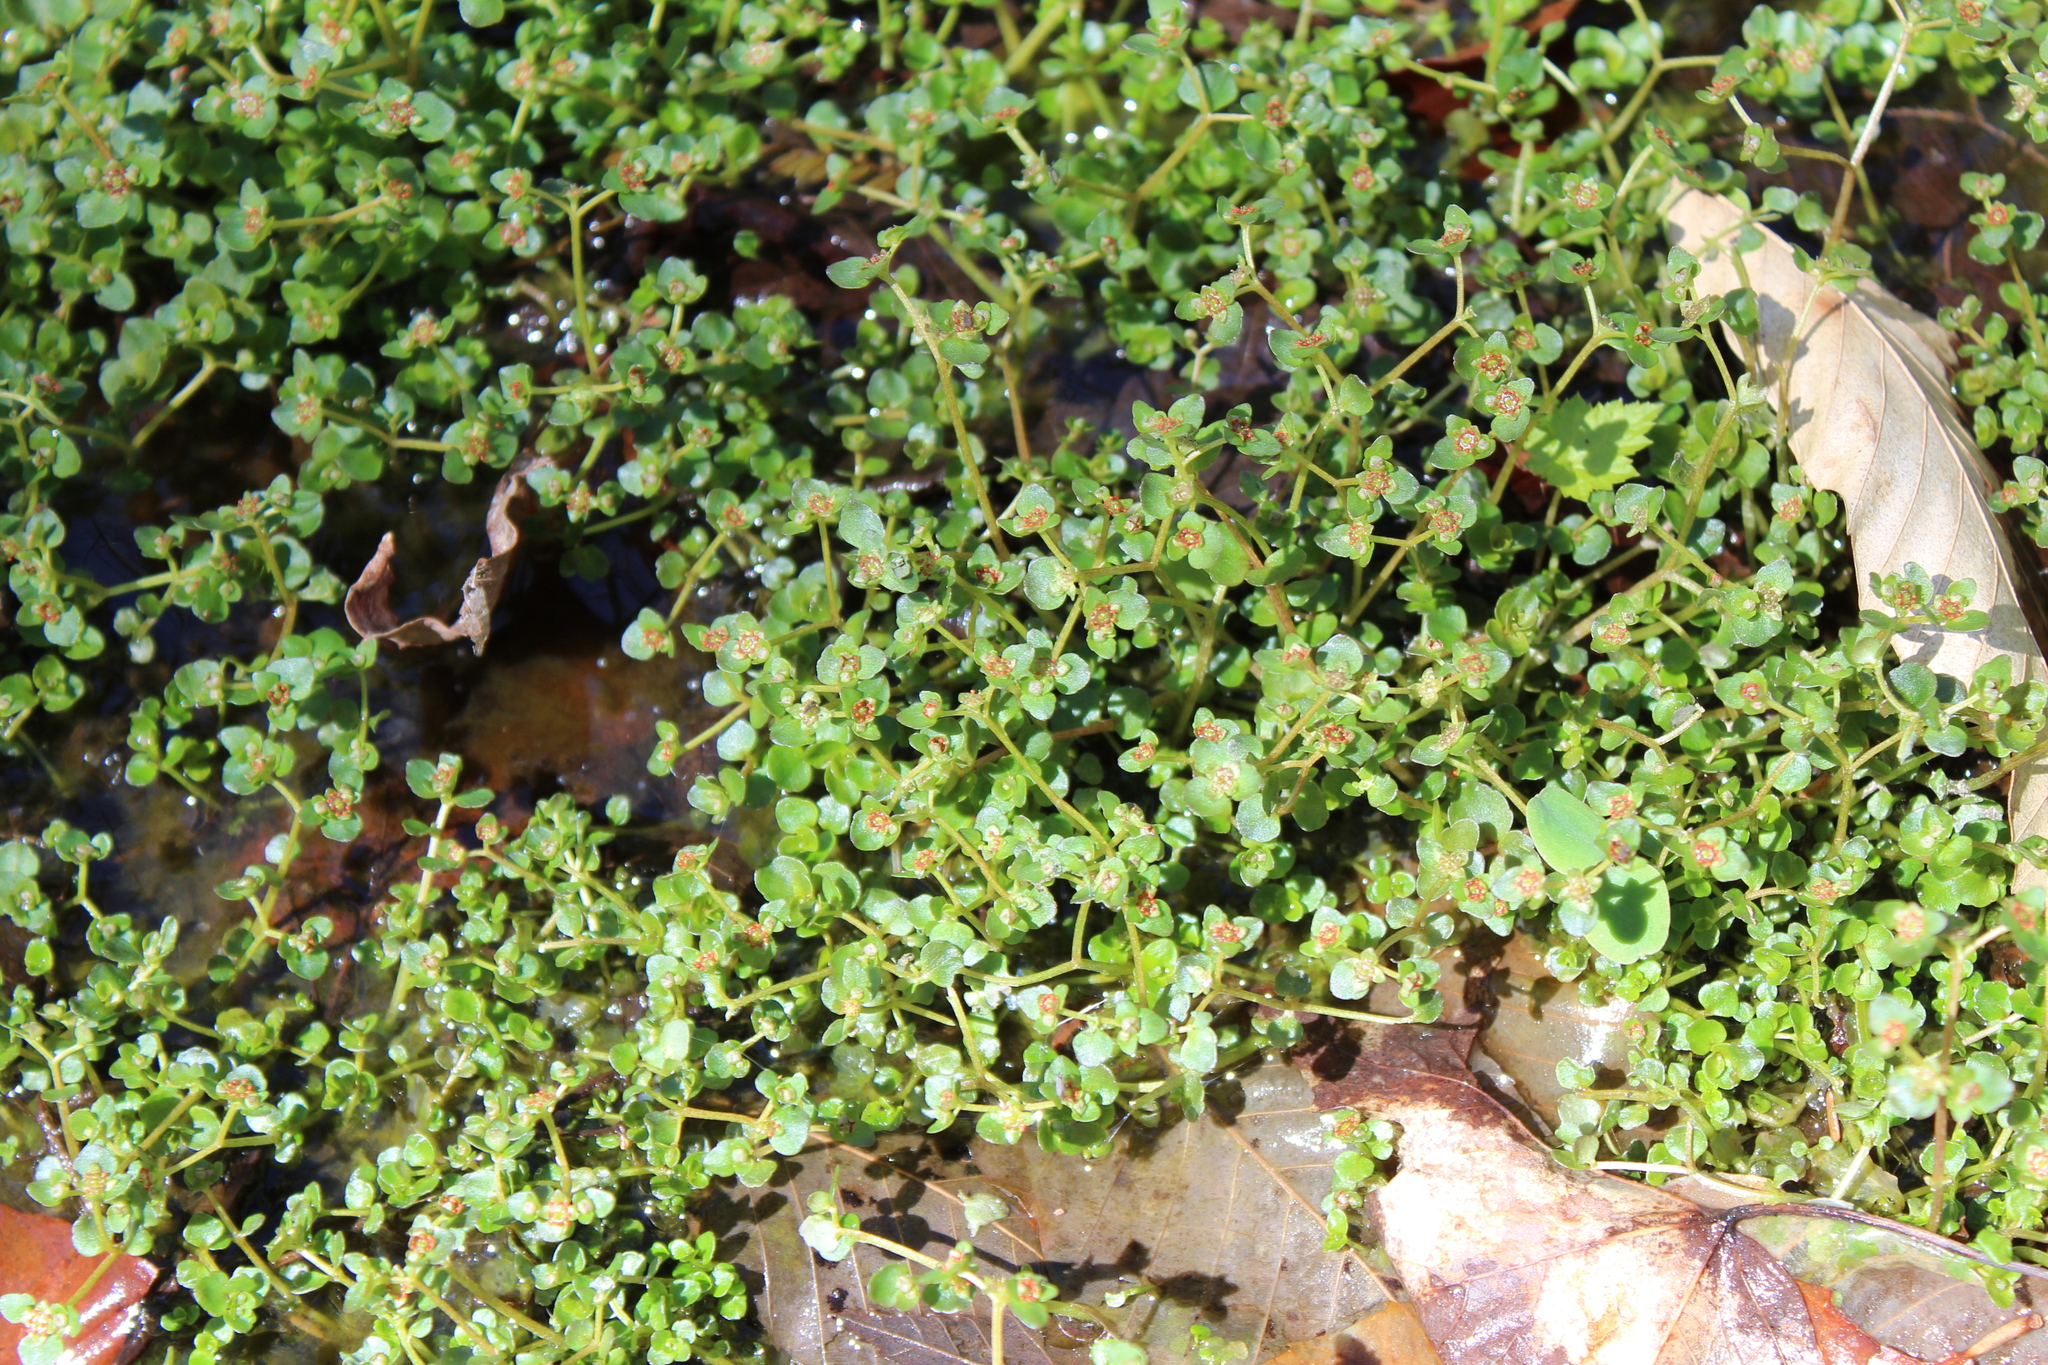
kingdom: Plantae
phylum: Tracheophyta
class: Magnoliopsida
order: Saxifragales
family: Saxifragaceae
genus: Chrysosplenium
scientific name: Chrysosplenium americanum
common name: American golden-saxifrage
